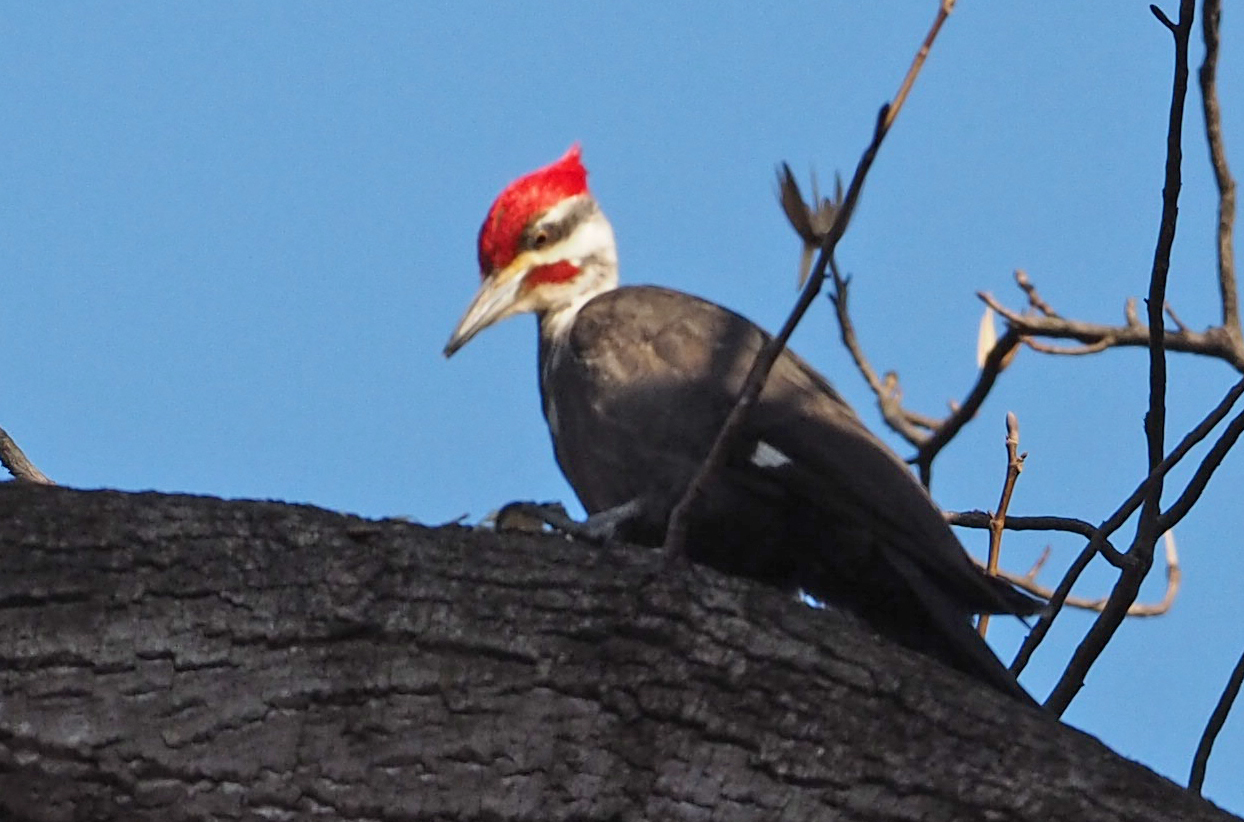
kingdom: Animalia
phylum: Chordata
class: Aves
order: Piciformes
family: Picidae
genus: Dryocopus
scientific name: Dryocopus pileatus
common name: Pileated woodpecker
